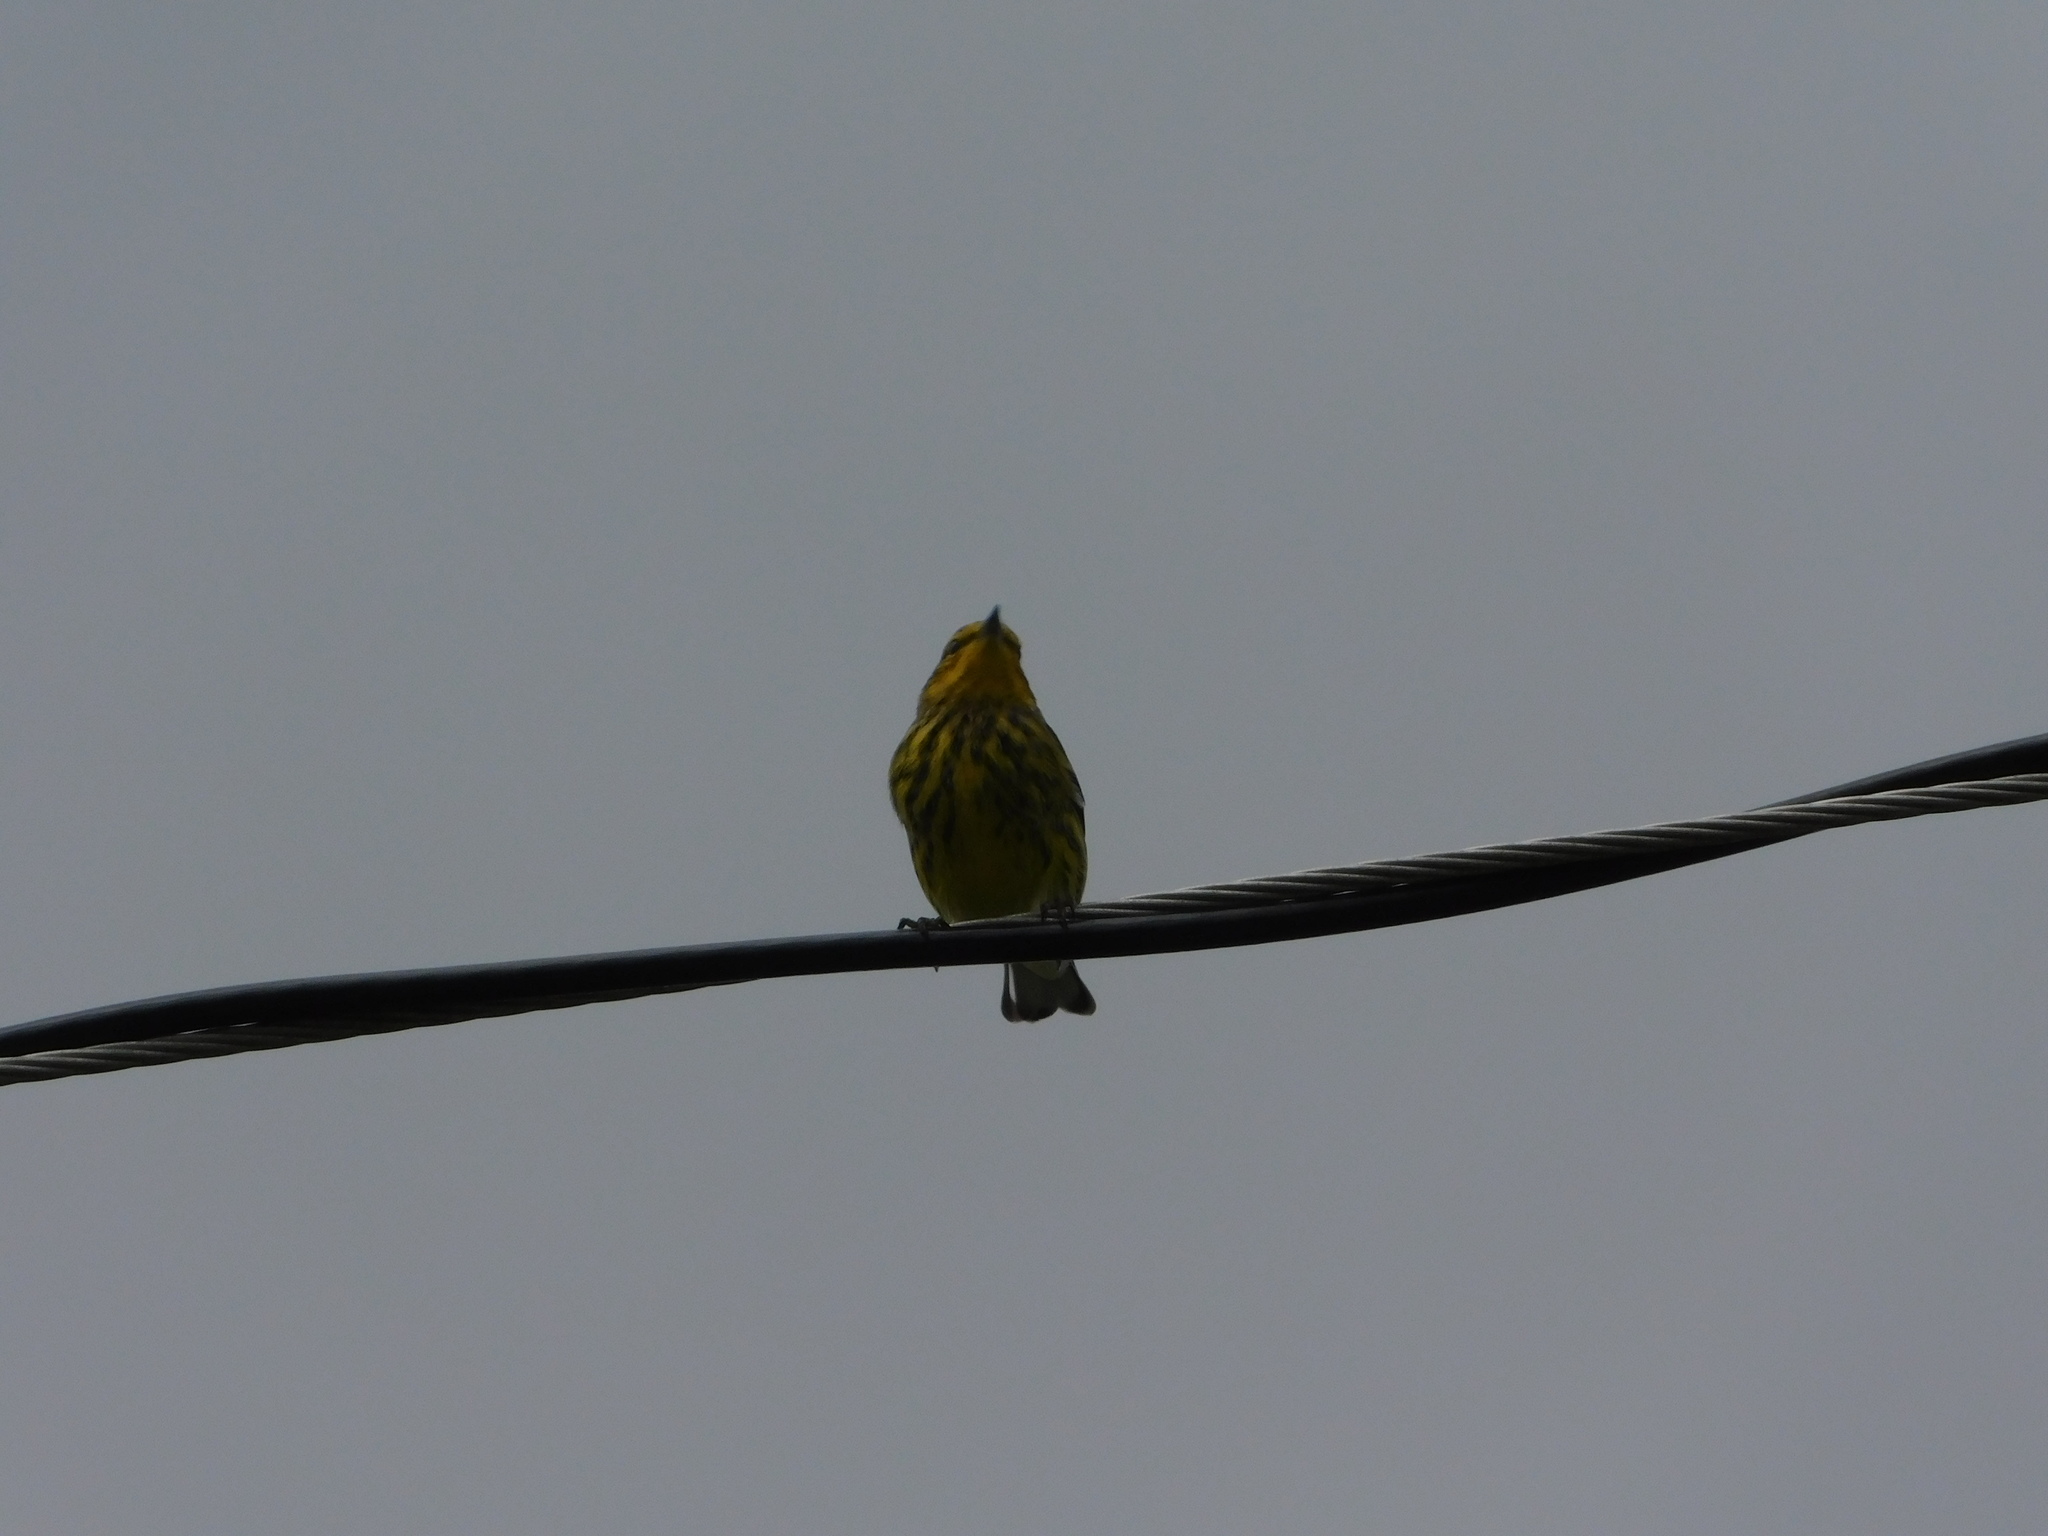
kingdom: Animalia
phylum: Chordata
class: Aves
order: Passeriformes
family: Parulidae
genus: Setophaga
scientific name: Setophaga tigrina
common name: Cape may warbler
